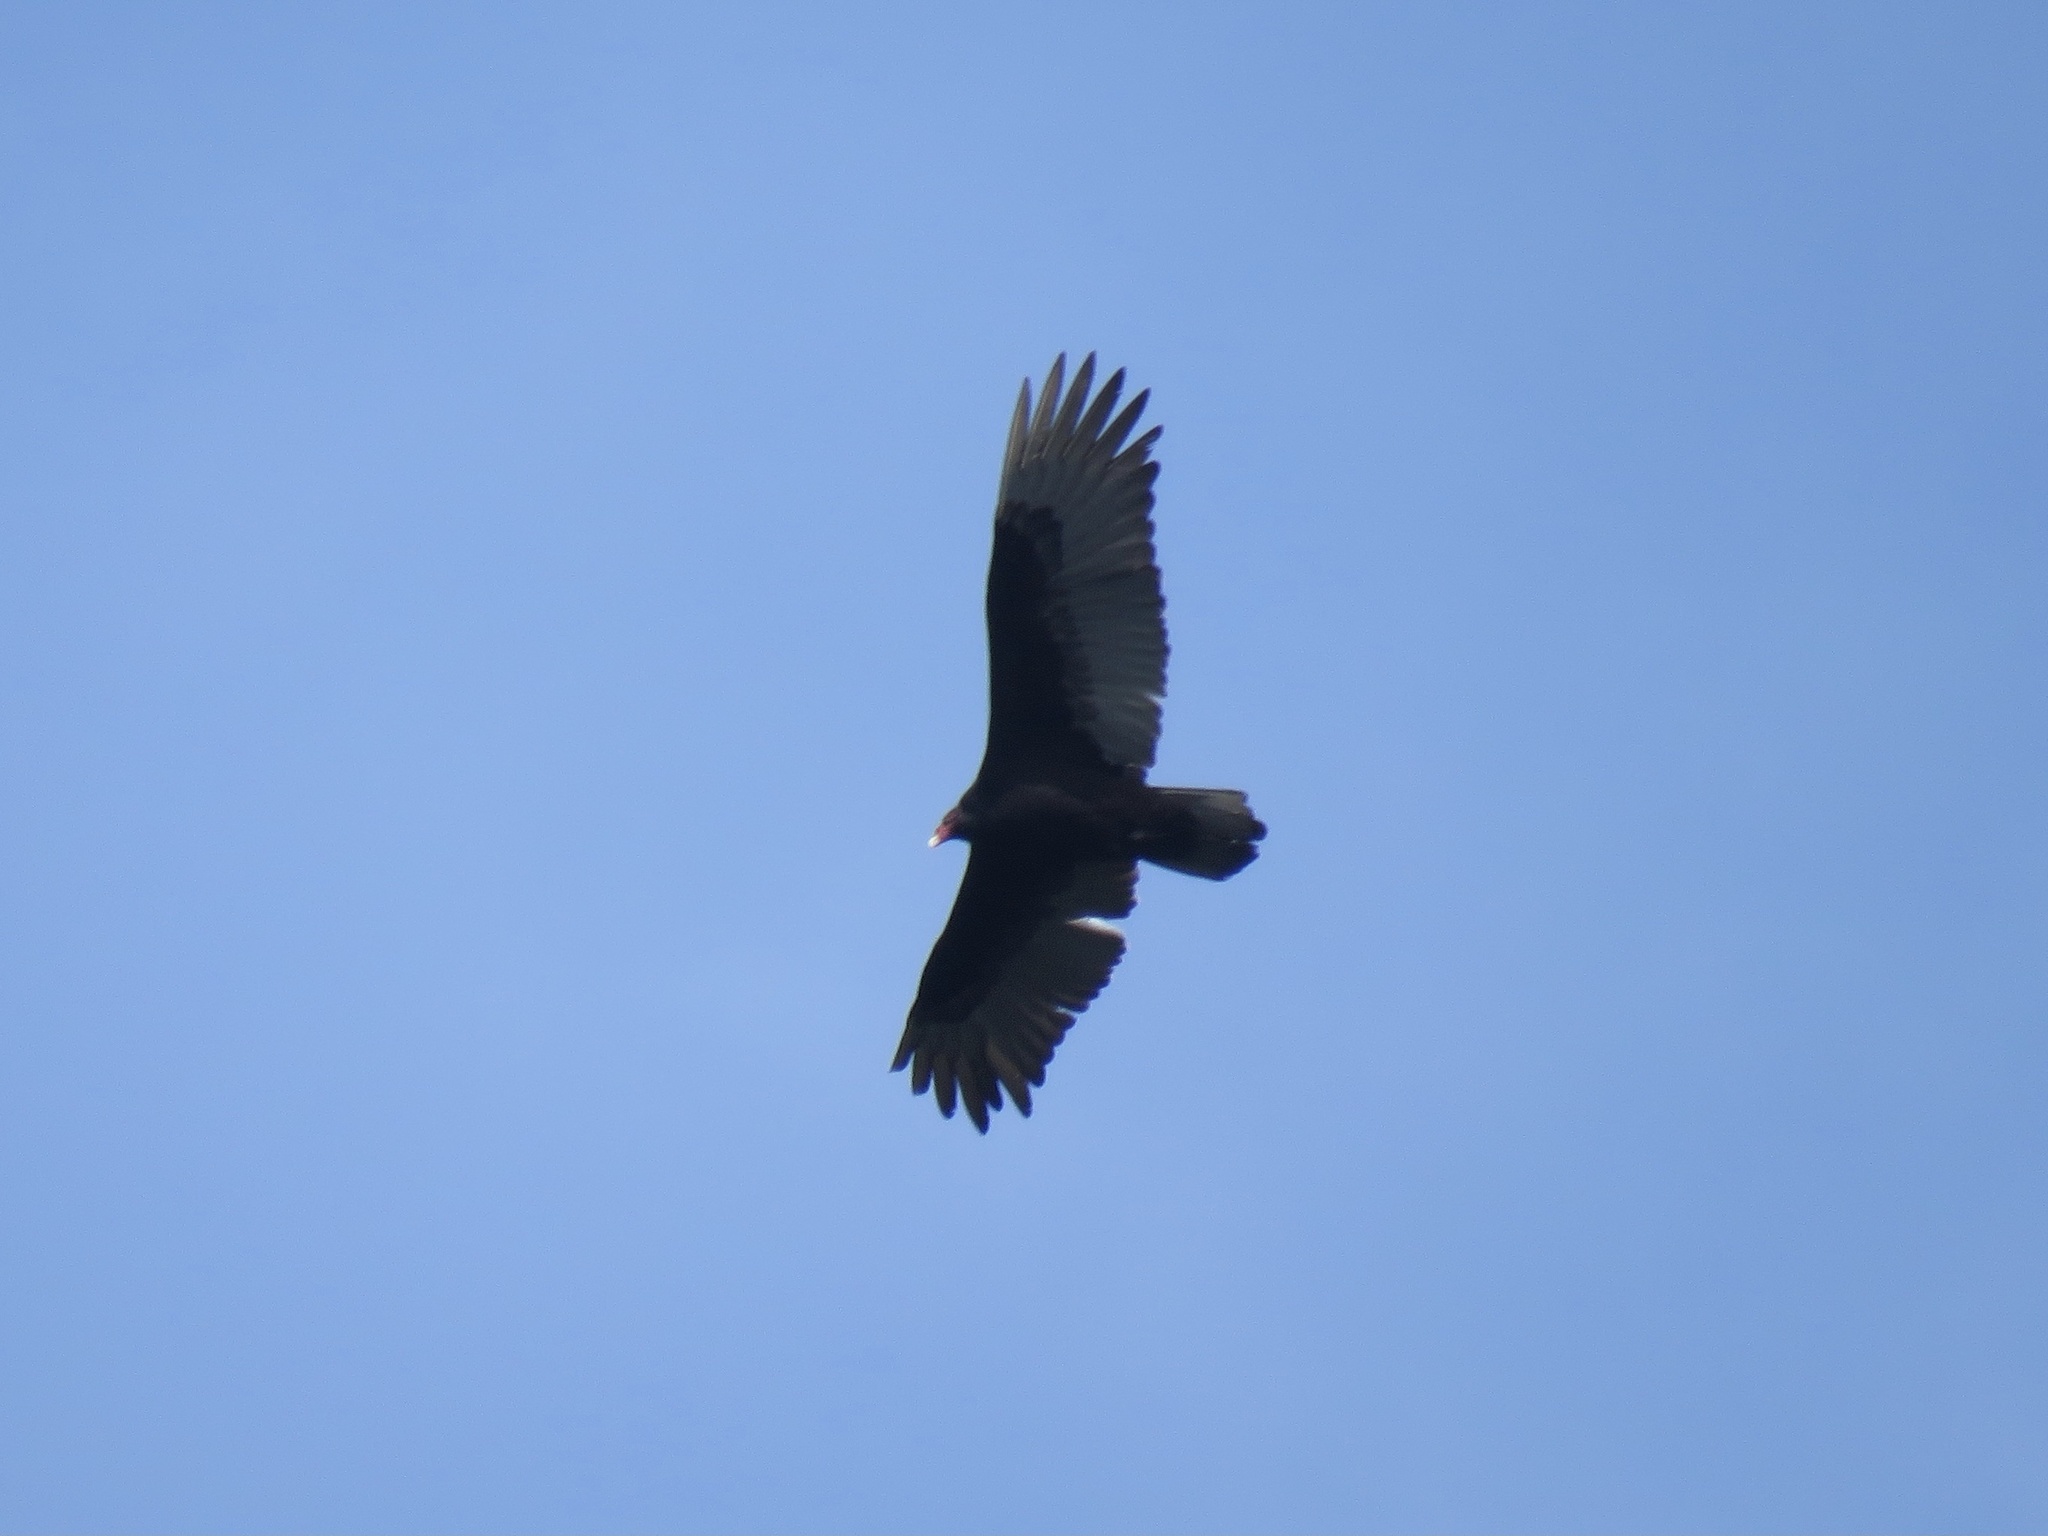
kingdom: Animalia
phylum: Chordata
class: Aves
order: Accipitriformes
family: Cathartidae
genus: Cathartes
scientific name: Cathartes aura
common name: Turkey vulture
